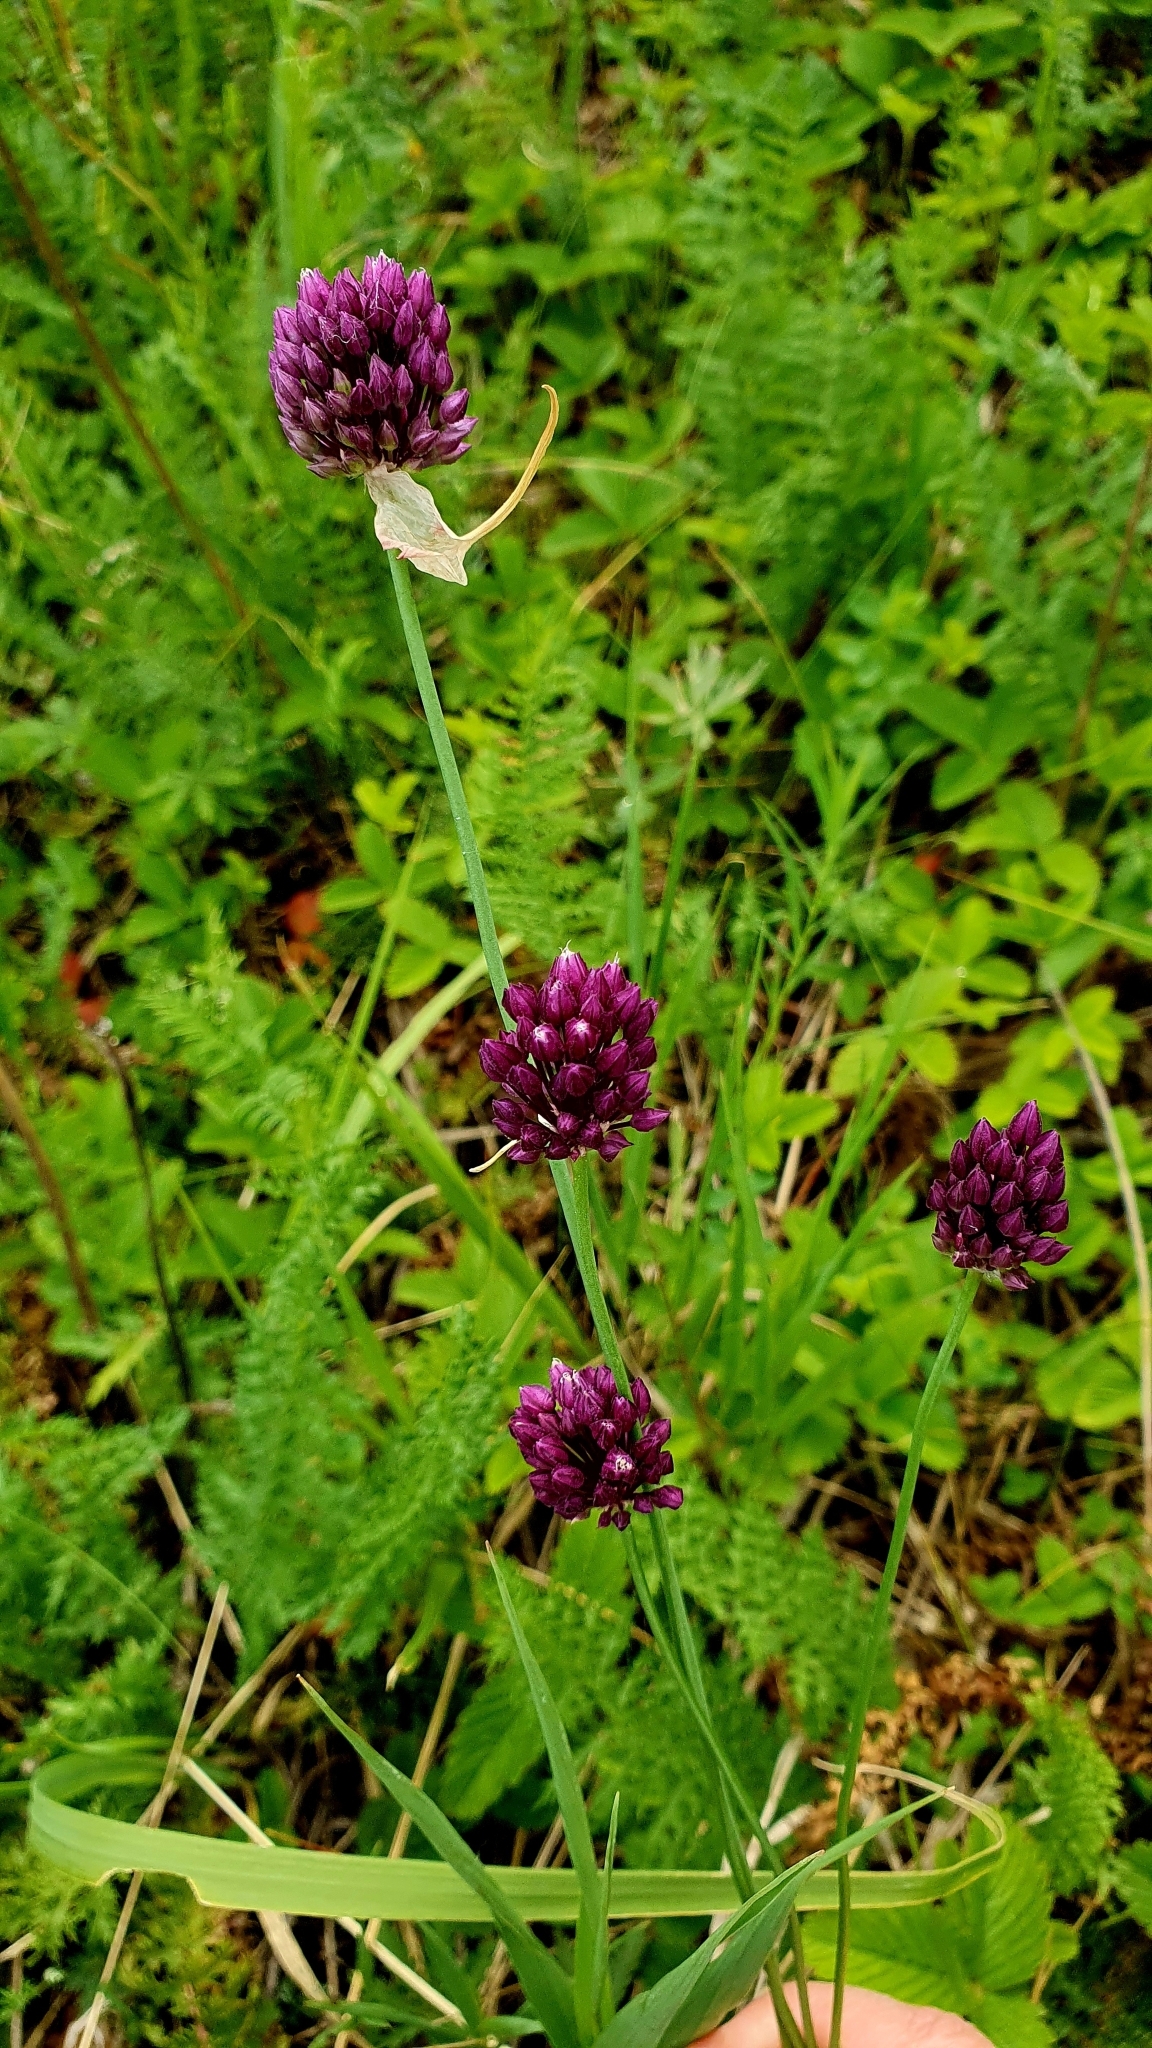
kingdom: Plantae
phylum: Tracheophyta
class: Liliopsida
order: Asparagales
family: Amaryllidaceae
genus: Allium
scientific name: Allium rotundum
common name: Sand leek
